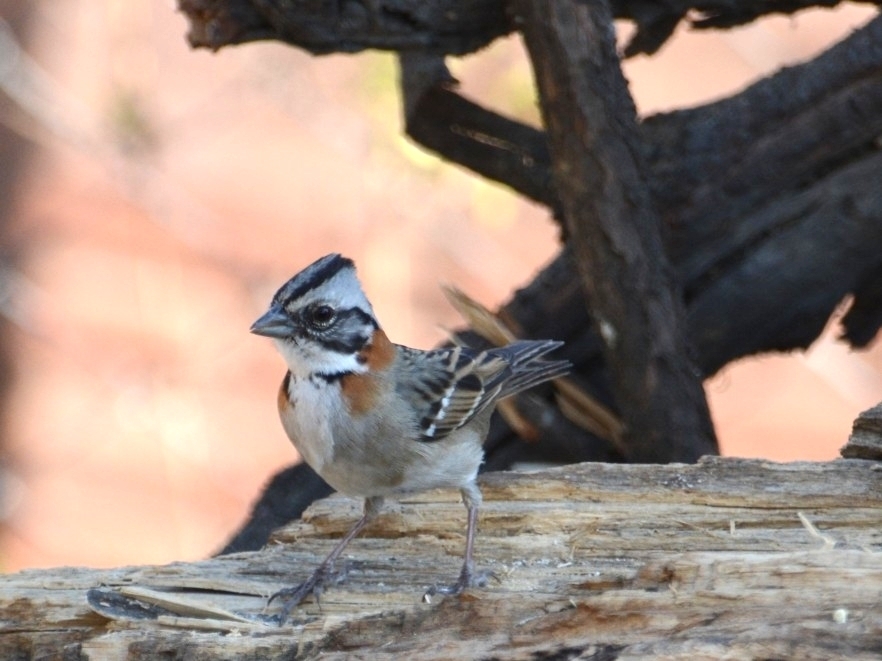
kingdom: Animalia
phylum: Chordata
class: Aves
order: Passeriformes
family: Passerellidae
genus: Zonotrichia
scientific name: Zonotrichia capensis
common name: Rufous-collared sparrow
